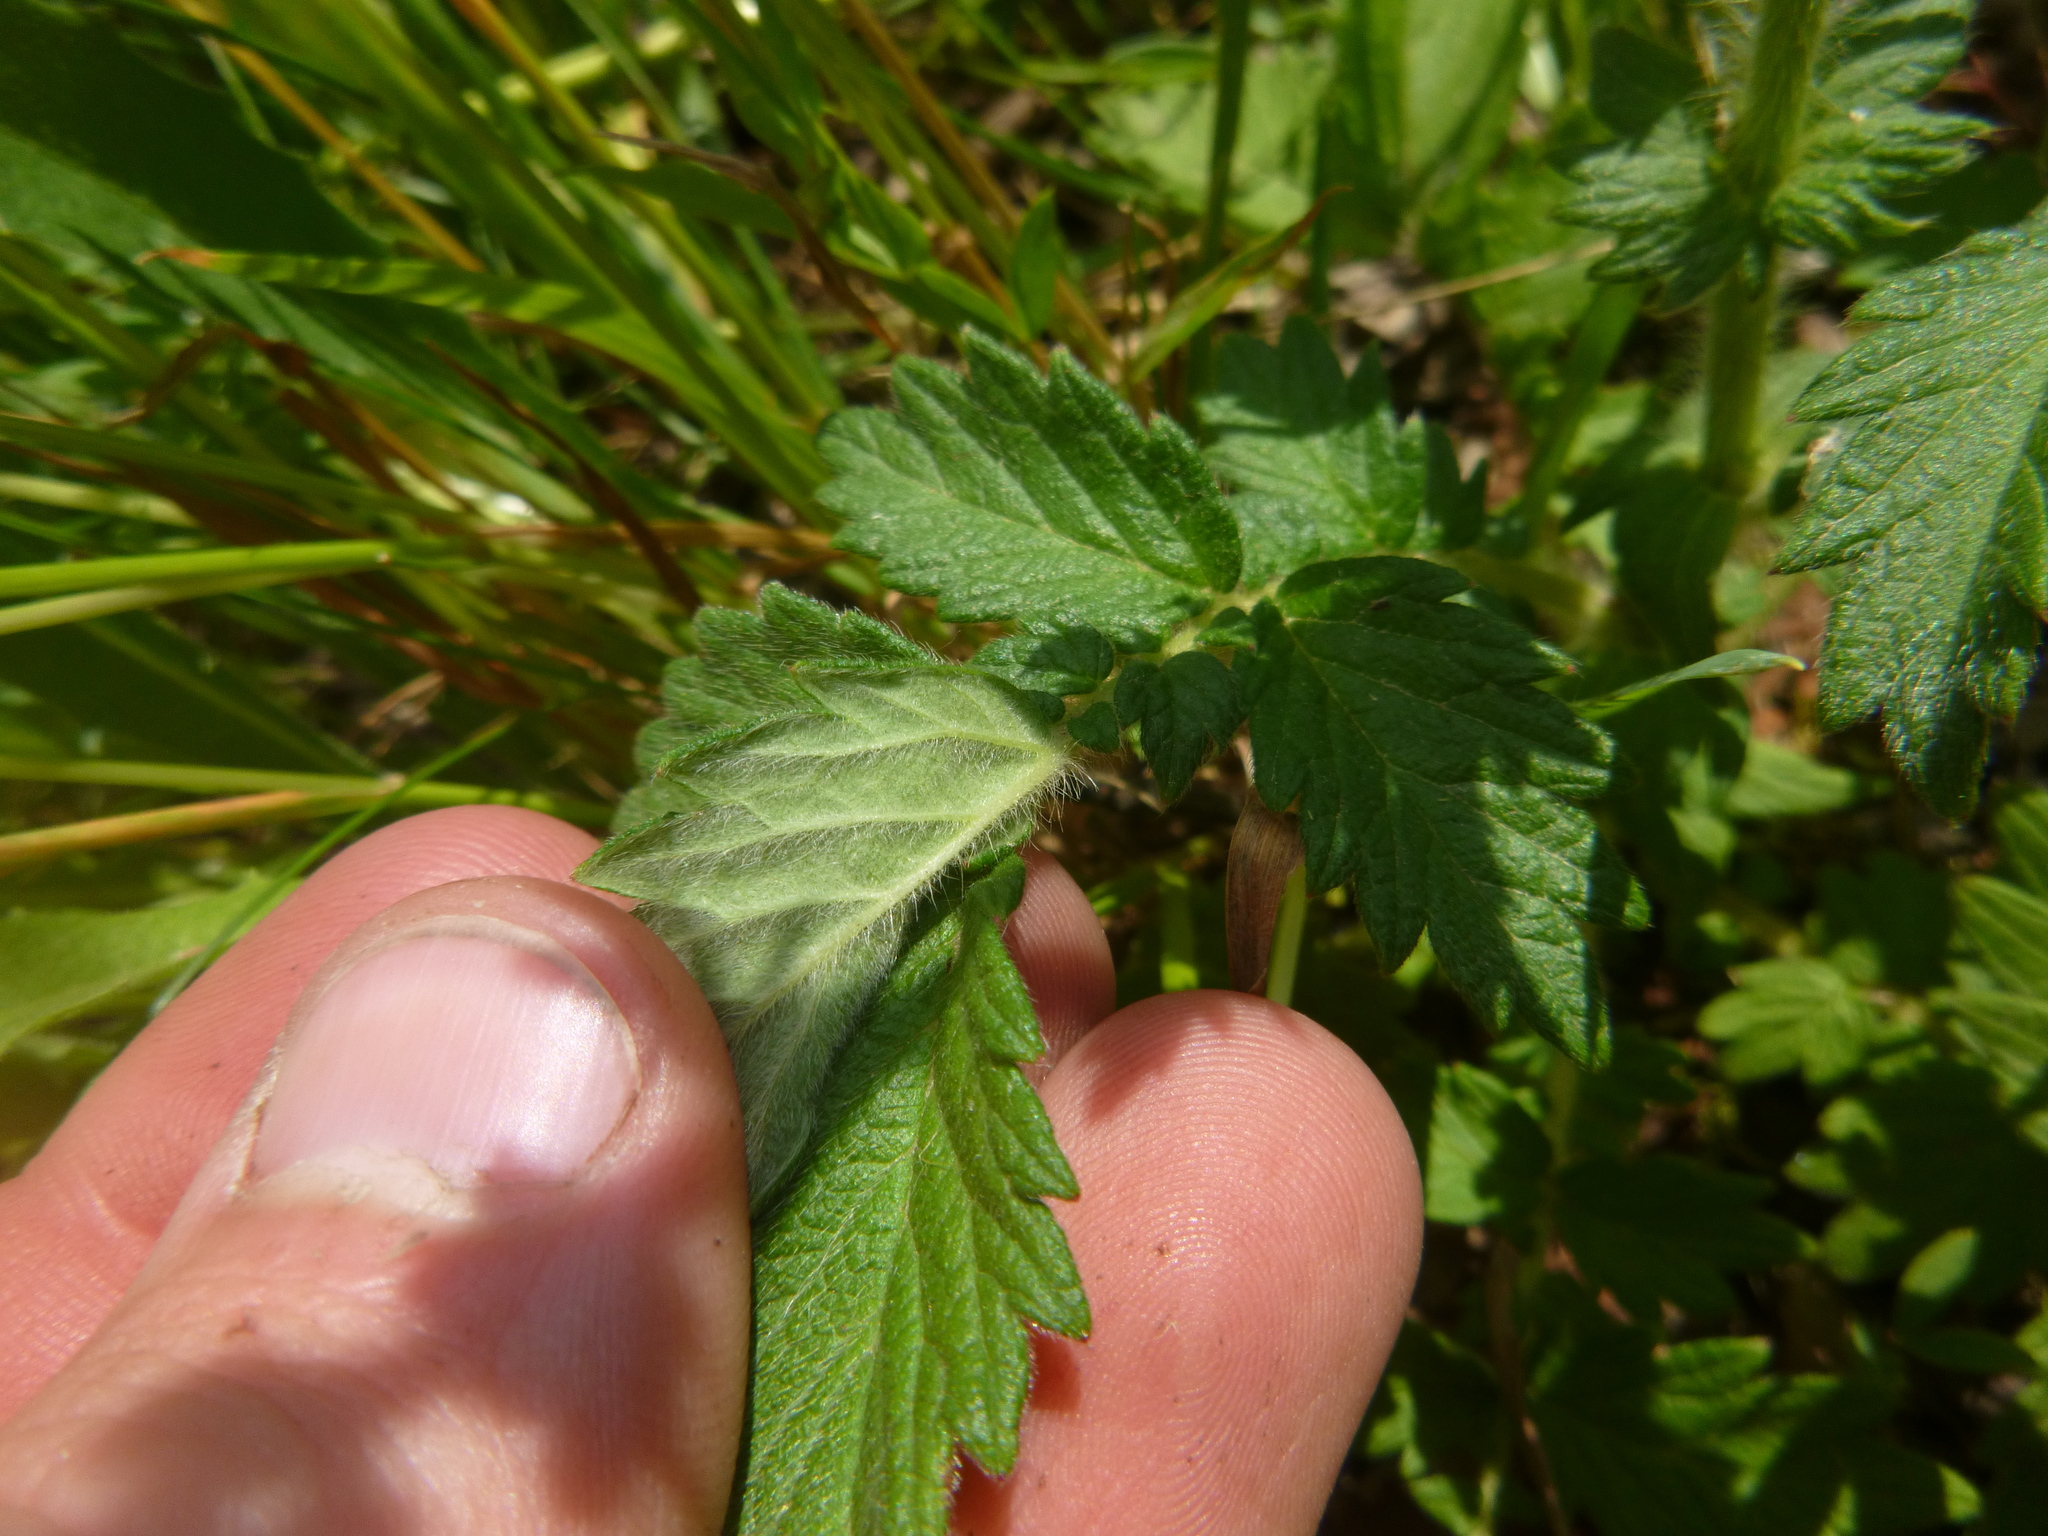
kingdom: Plantae
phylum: Tracheophyta
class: Magnoliopsida
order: Rosales
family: Rosaceae
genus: Agrimonia
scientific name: Agrimonia eupatoria
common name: Agrimony
